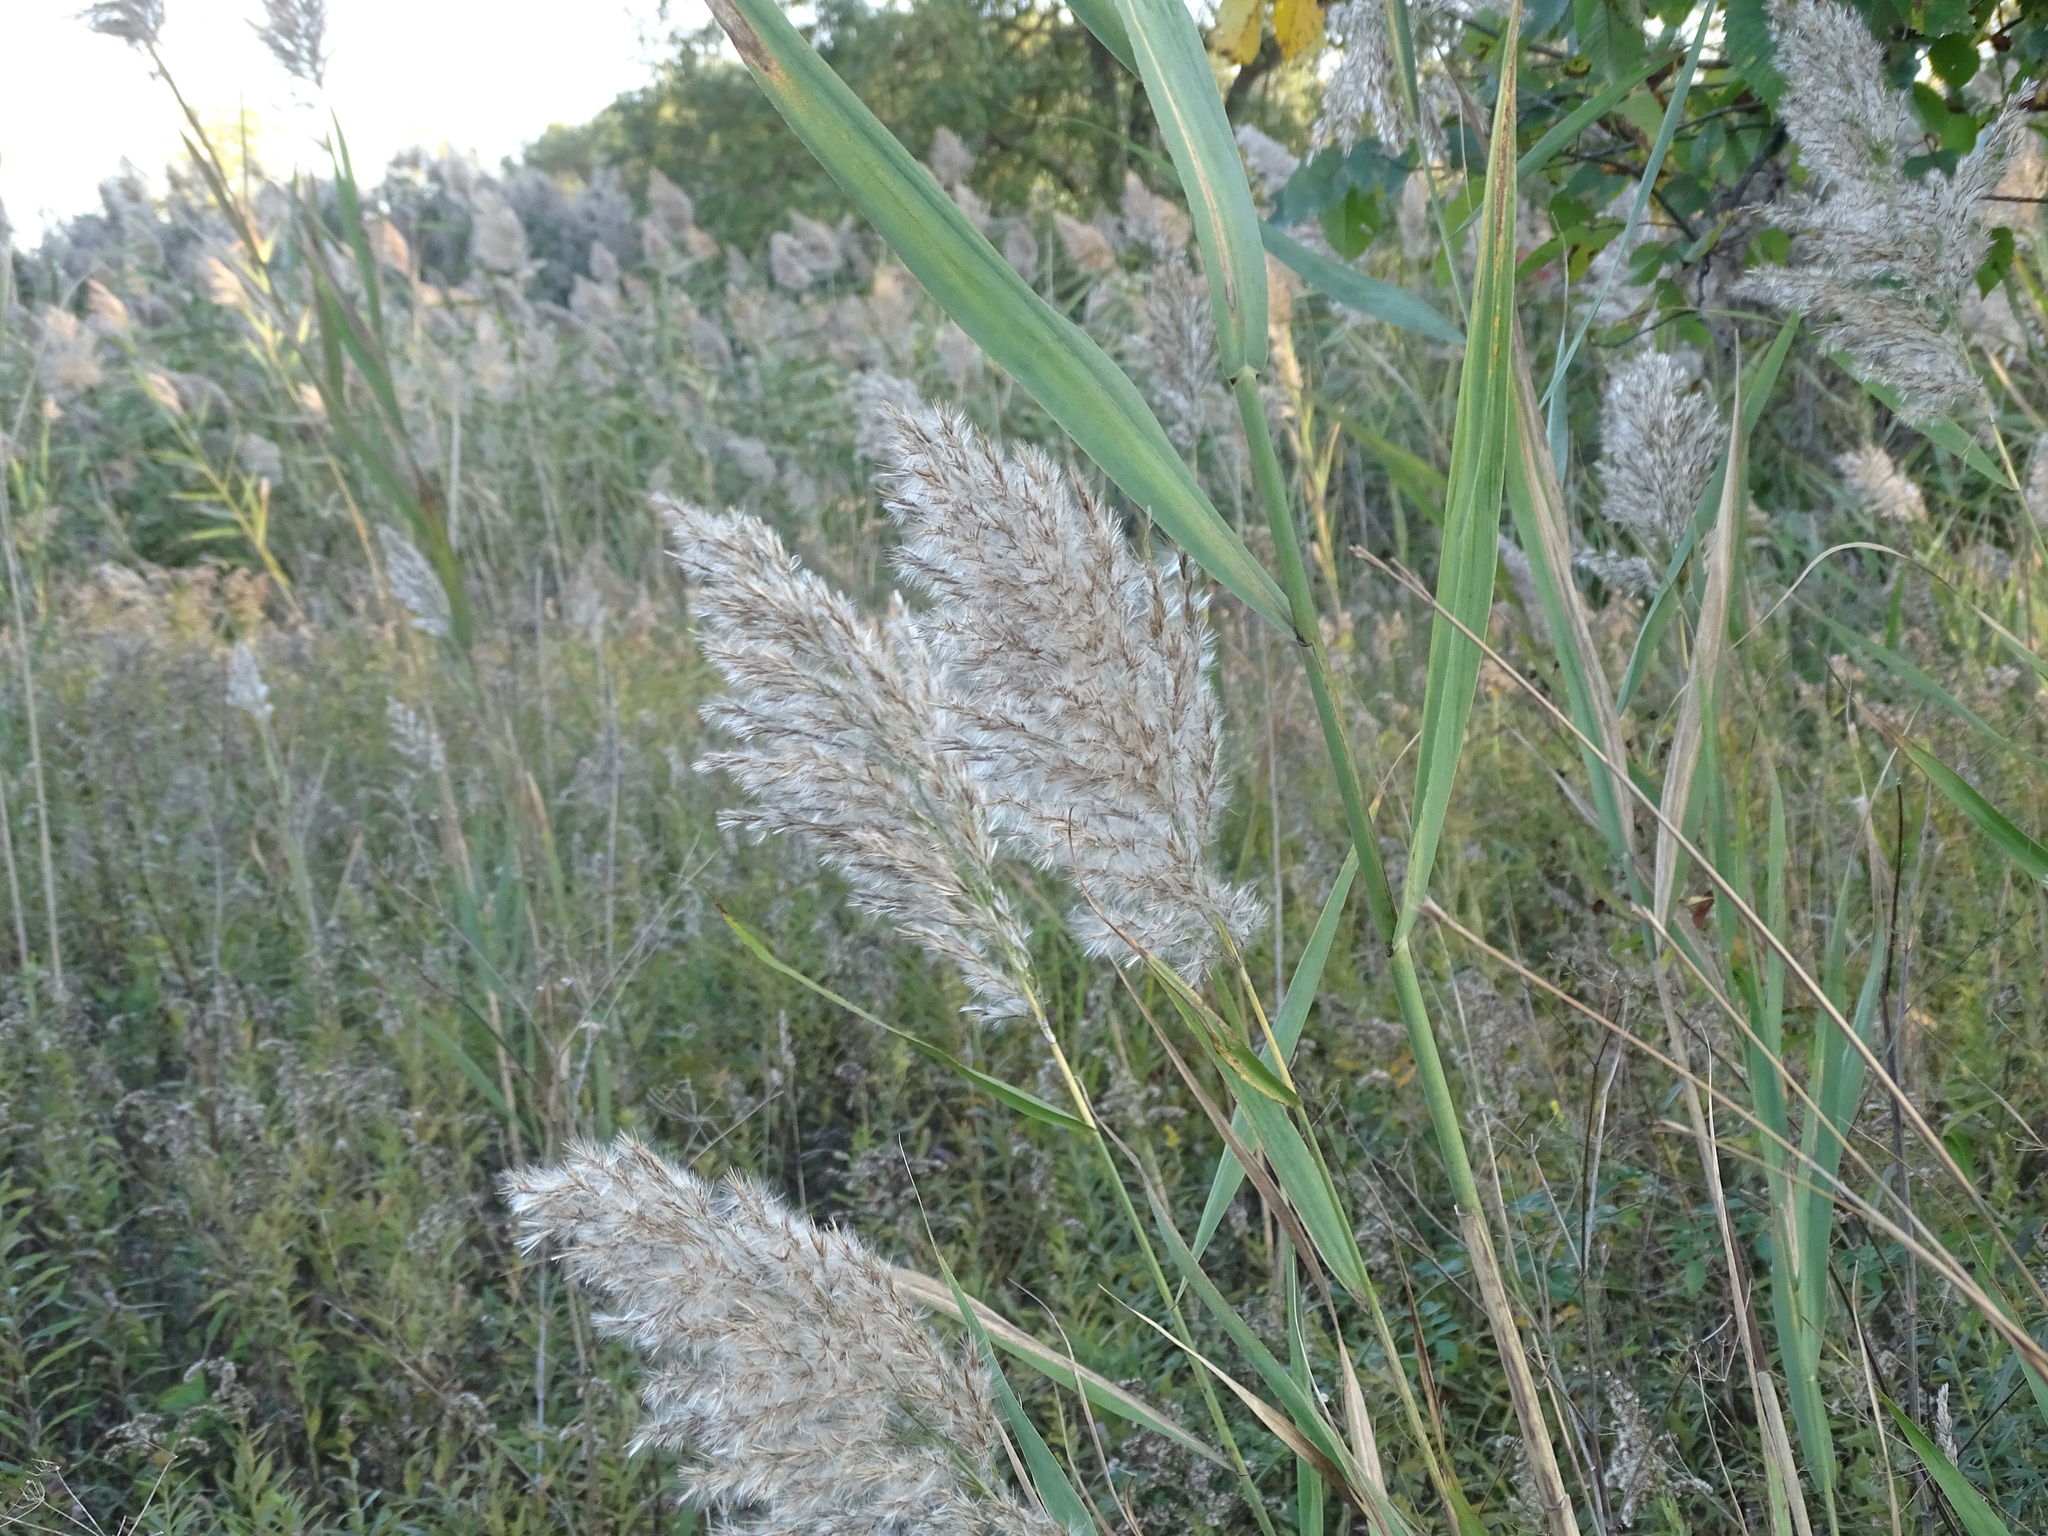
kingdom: Plantae
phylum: Tracheophyta
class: Liliopsida
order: Poales
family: Poaceae
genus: Phragmites
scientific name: Phragmites australis
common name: Common reed
